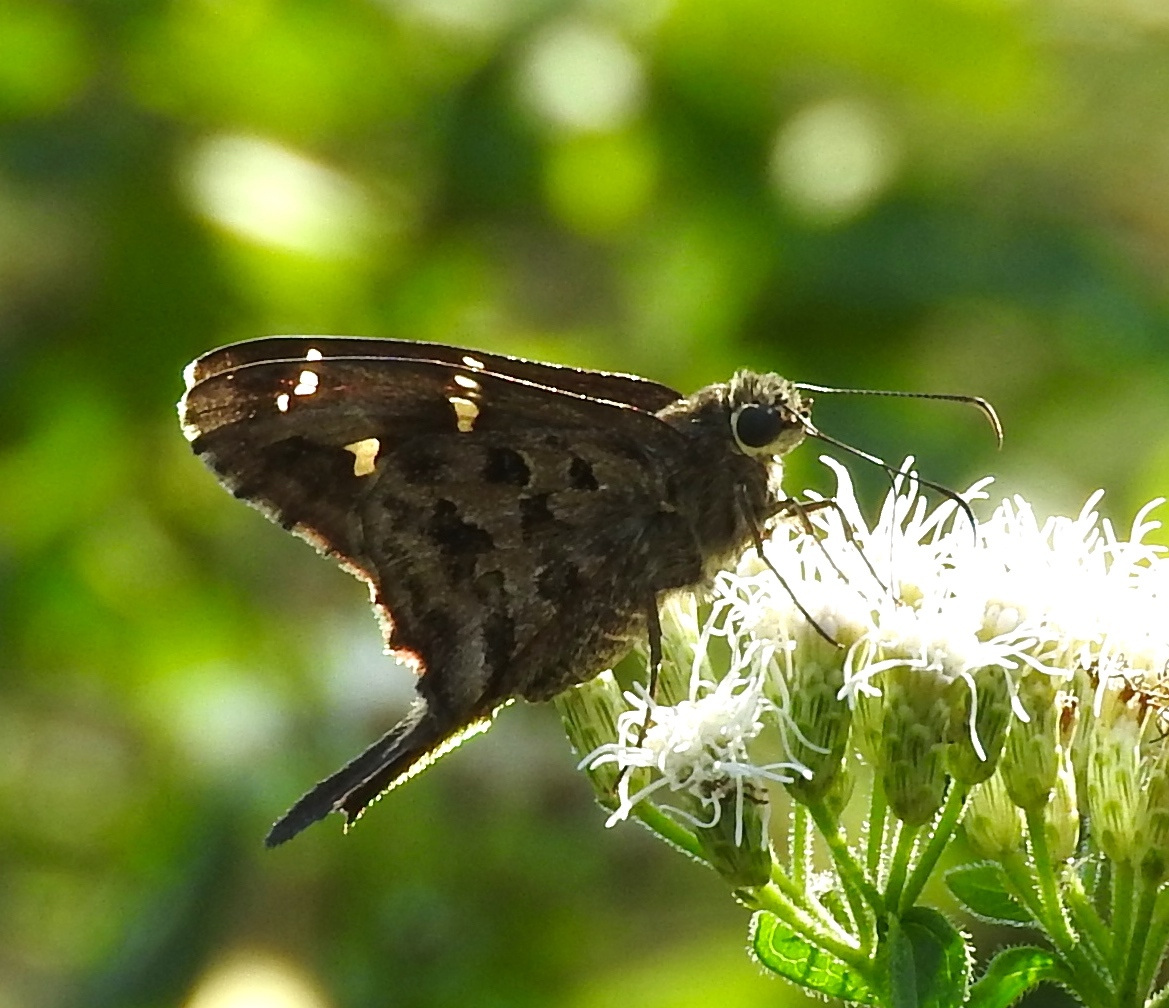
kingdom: Animalia
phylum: Arthropoda
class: Insecta
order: Lepidoptera
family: Hesperiidae
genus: Thorybes
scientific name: Thorybes
